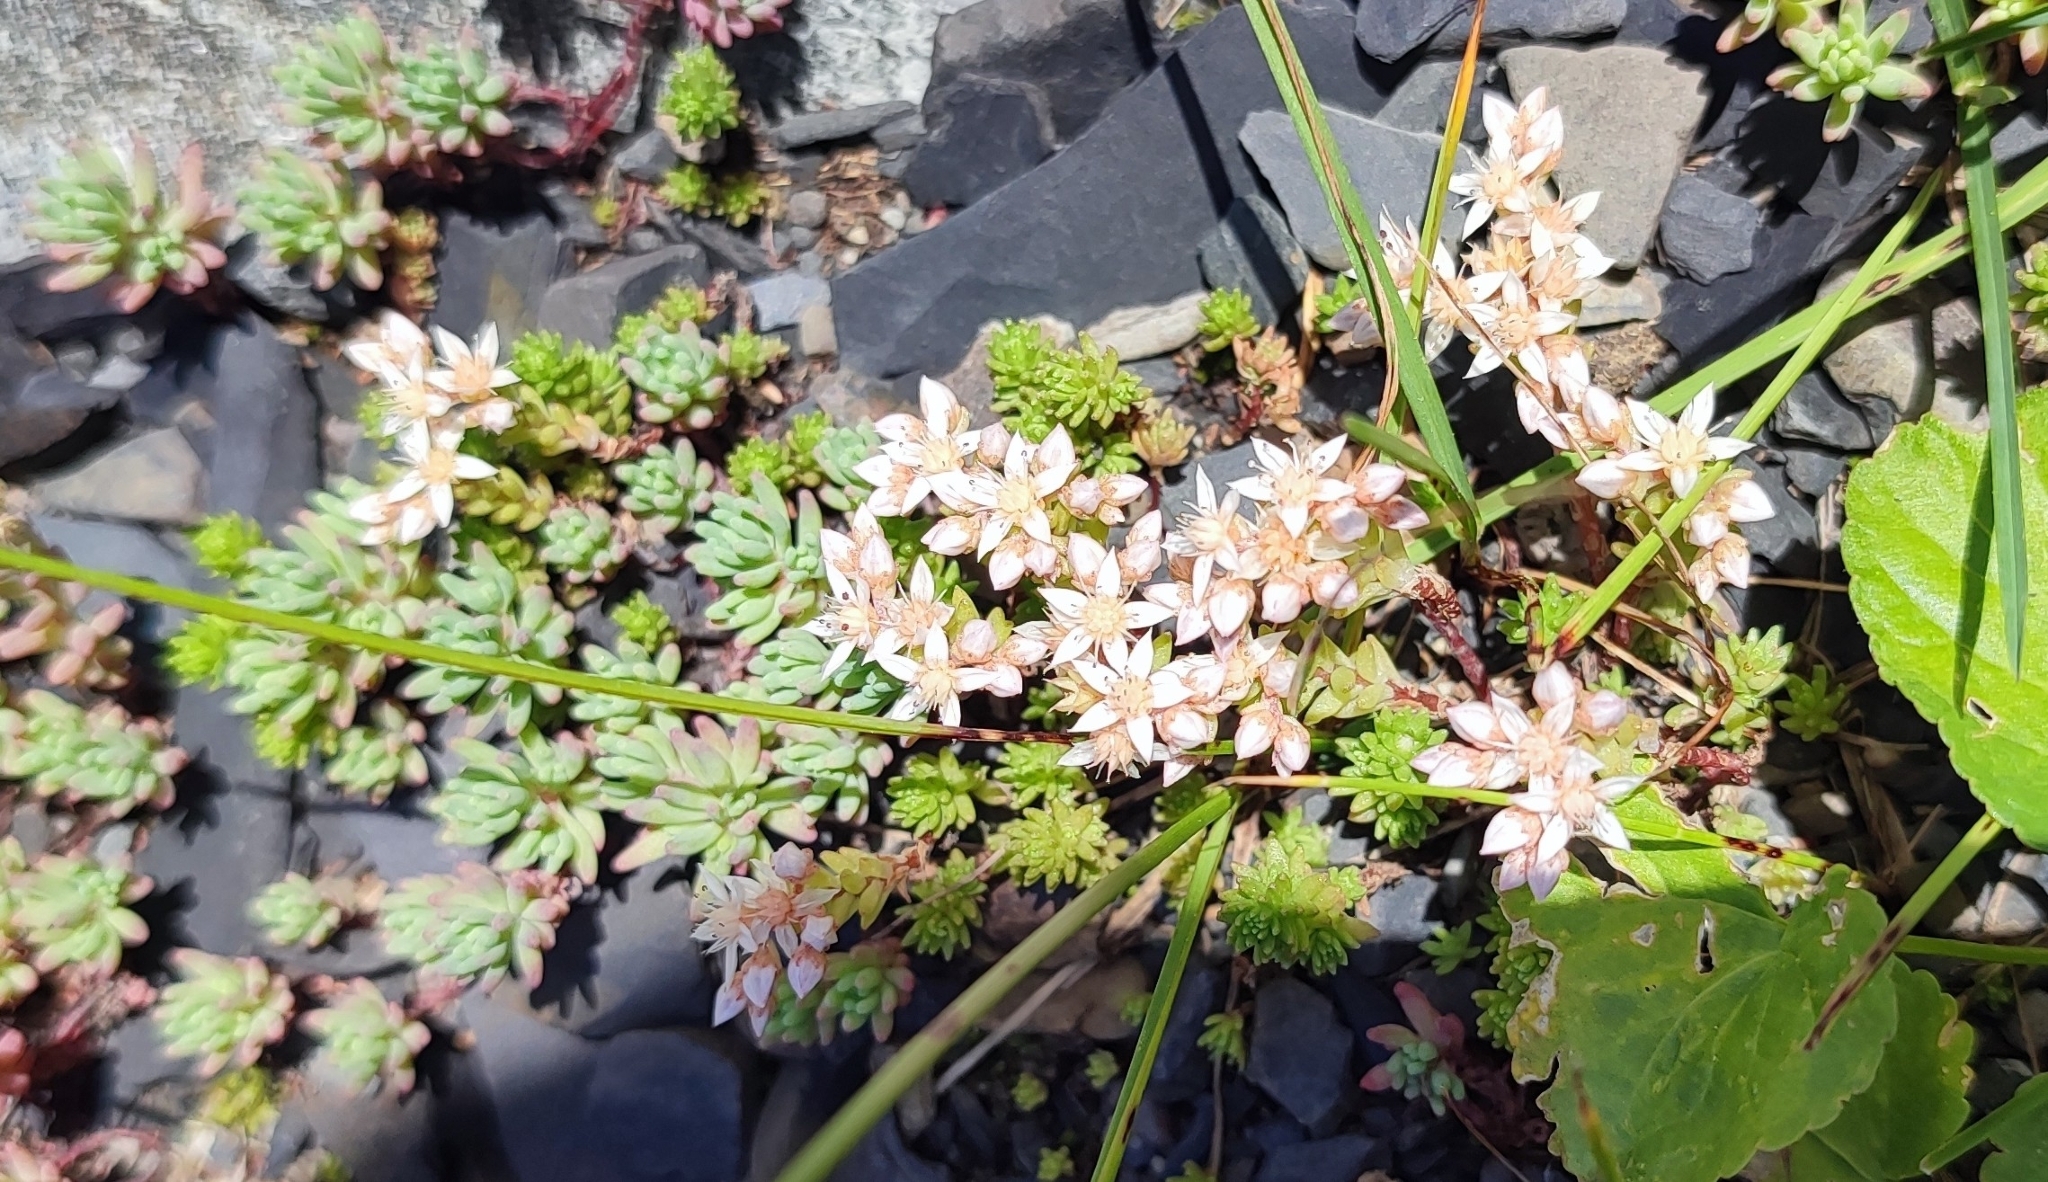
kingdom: Plantae
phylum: Tracheophyta
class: Magnoliopsida
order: Saxifragales
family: Crassulaceae
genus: Sedum
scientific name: Sedum pallidum
